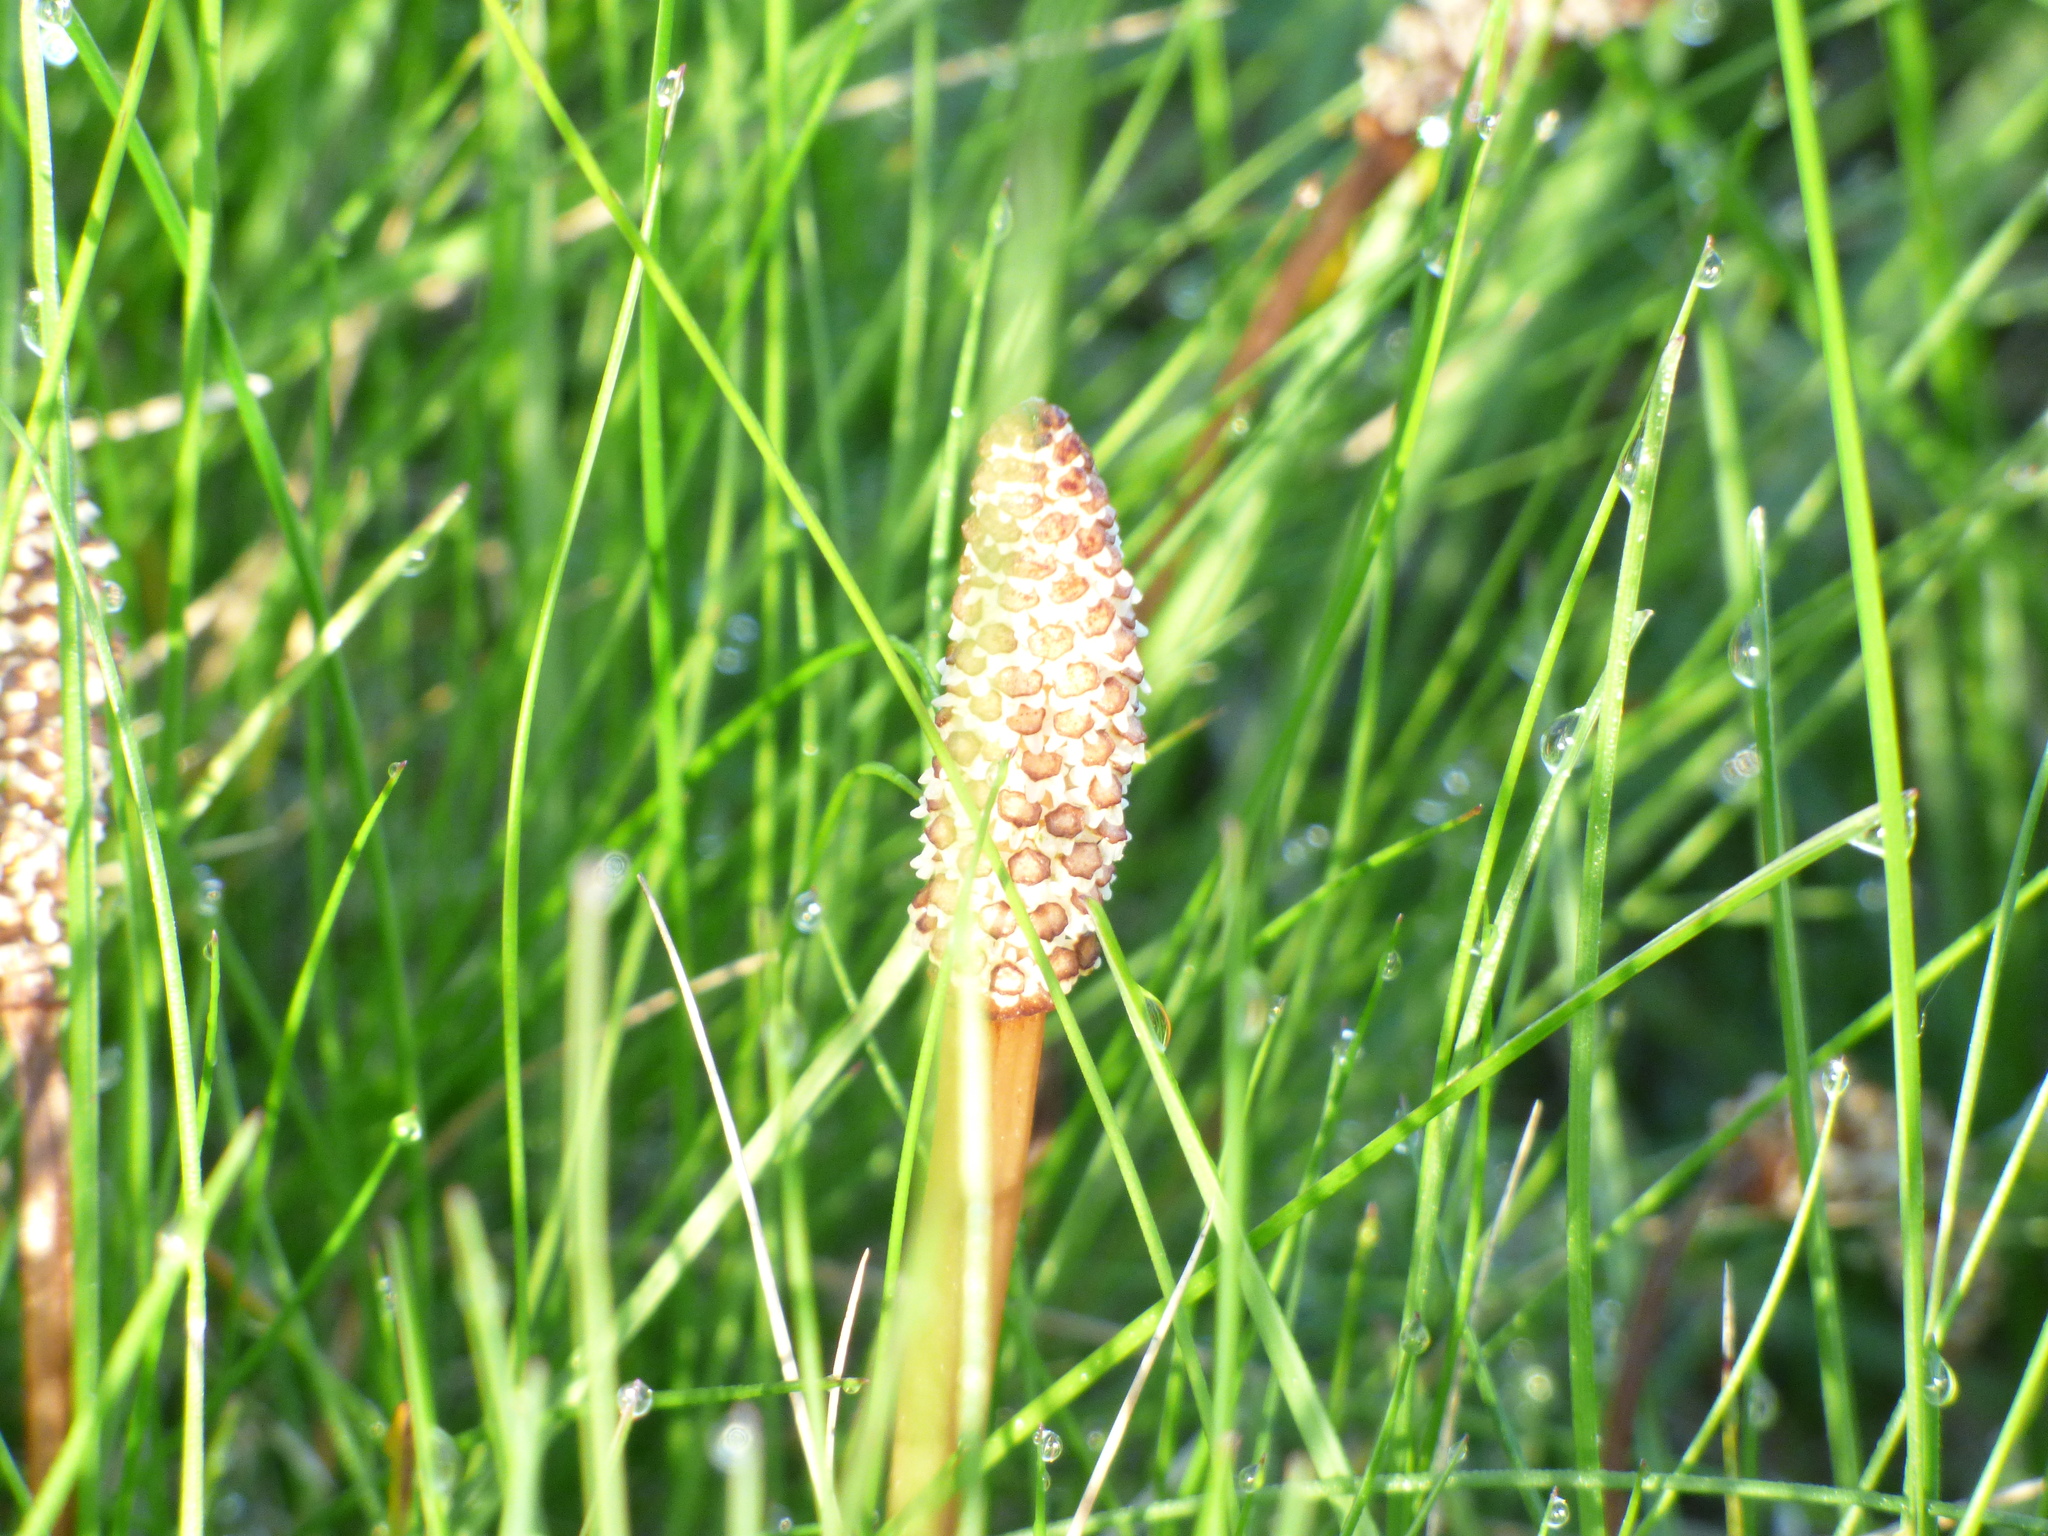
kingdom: Plantae
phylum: Tracheophyta
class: Polypodiopsida
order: Equisetales
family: Equisetaceae
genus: Equisetum
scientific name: Equisetum arvense
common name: Field horsetail
